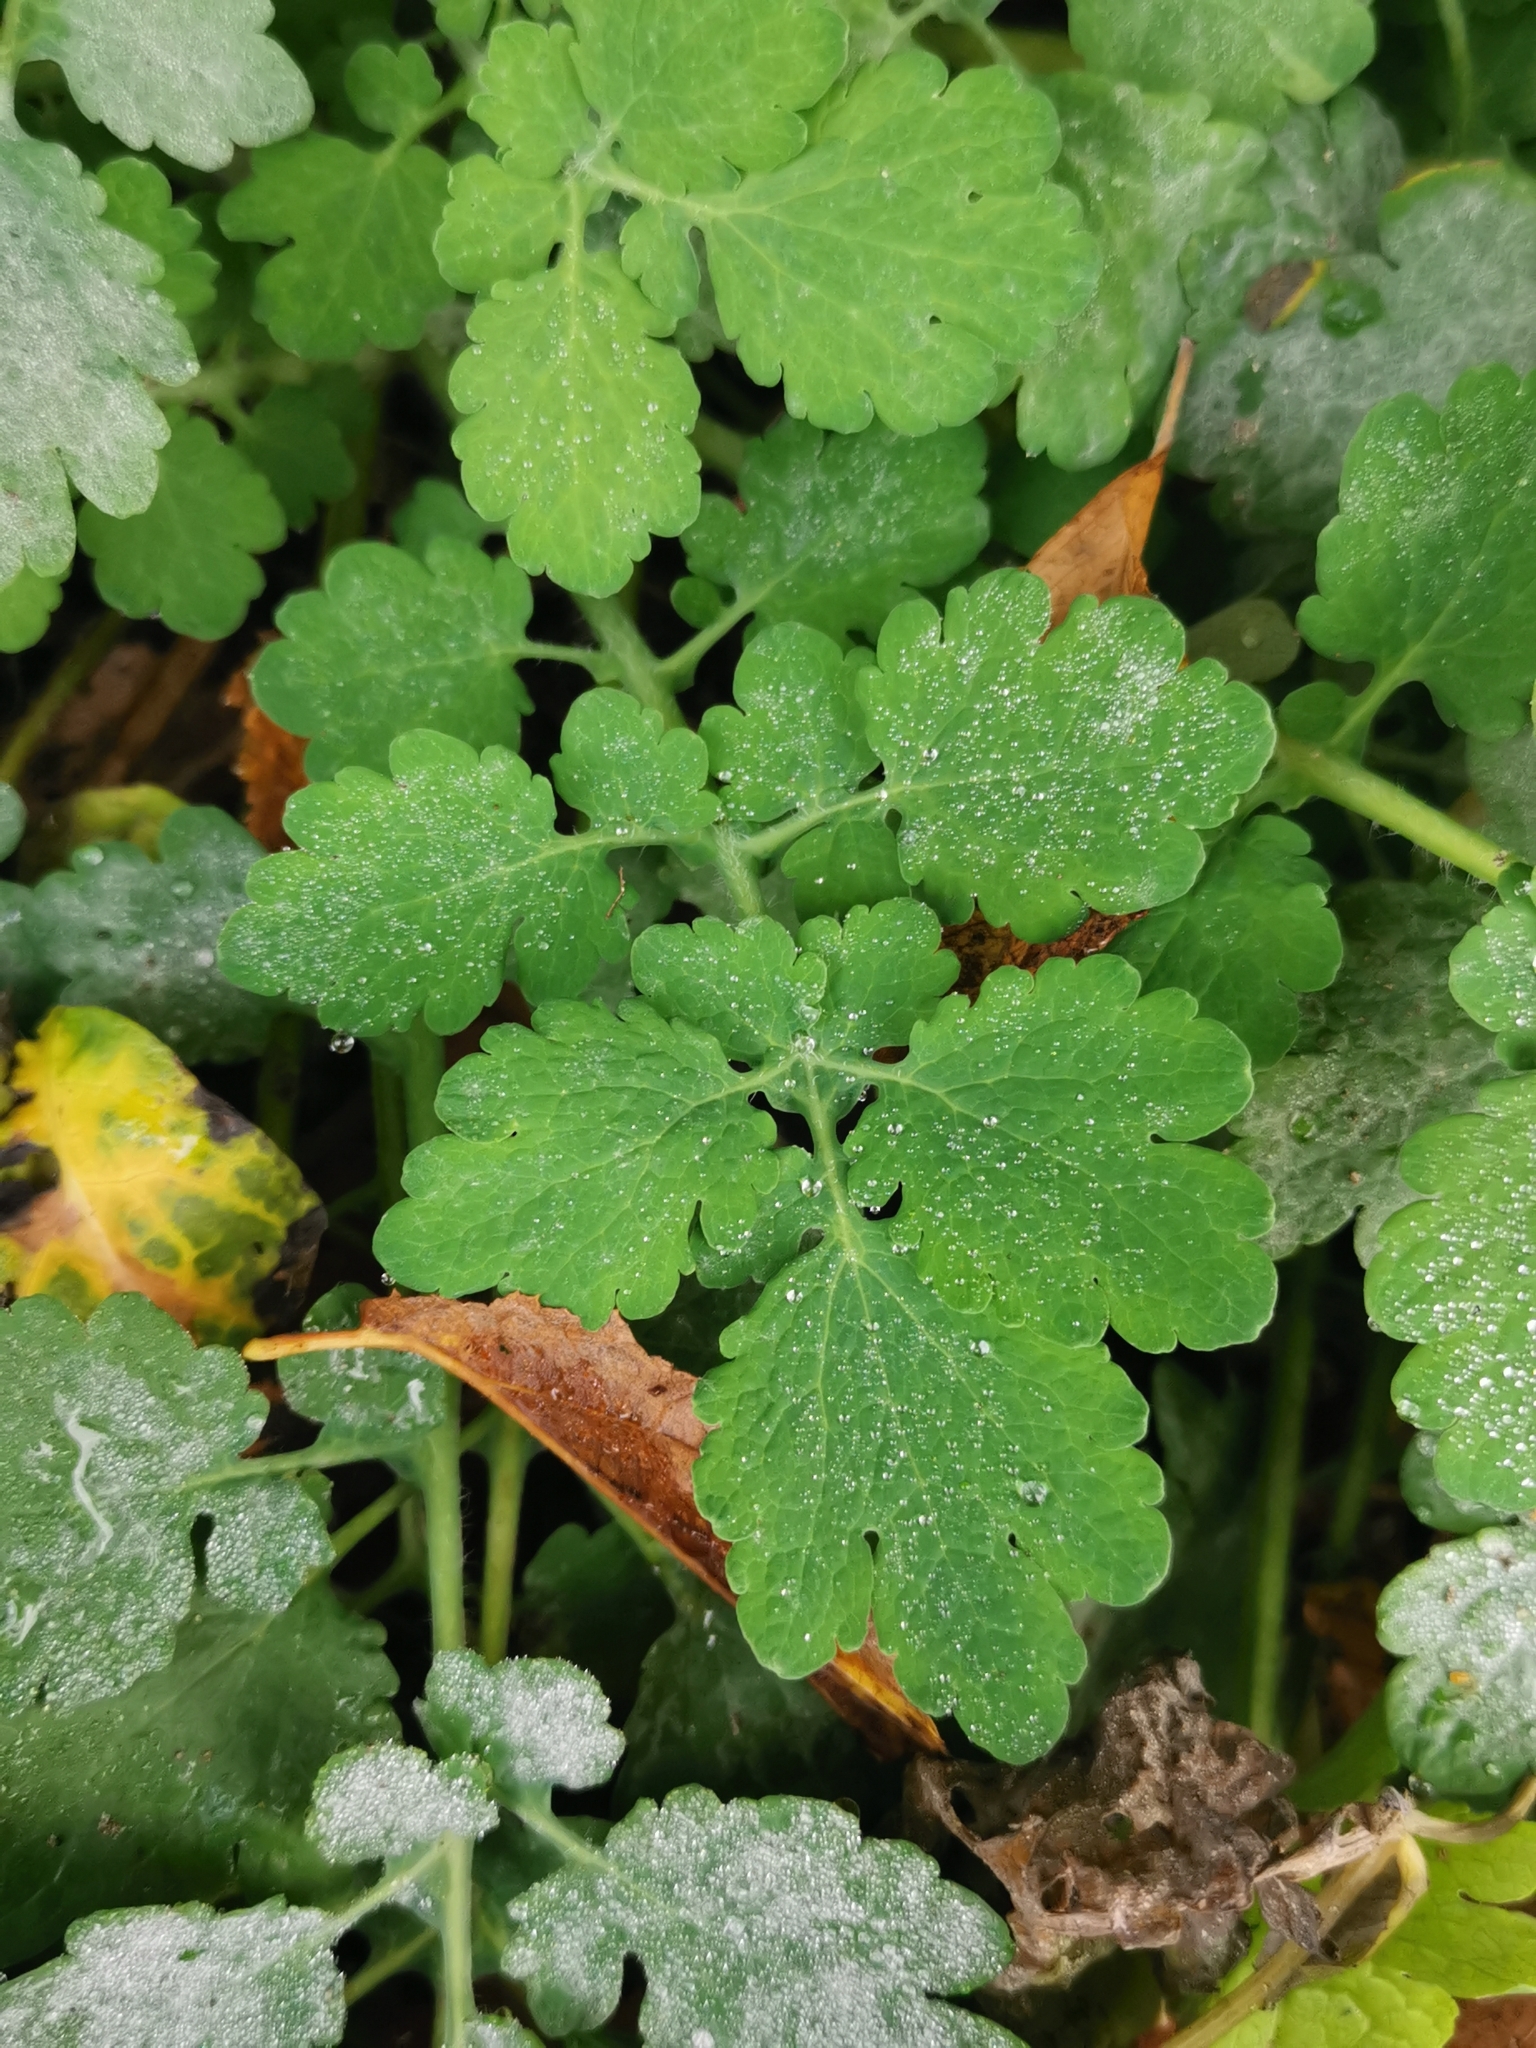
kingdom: Plantae
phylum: Tracheophyta
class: Magnoliopsida
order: Ranunculales
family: Papaveraceae
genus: Chelidonium
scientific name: Chelidonium majus
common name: Greater celandine
